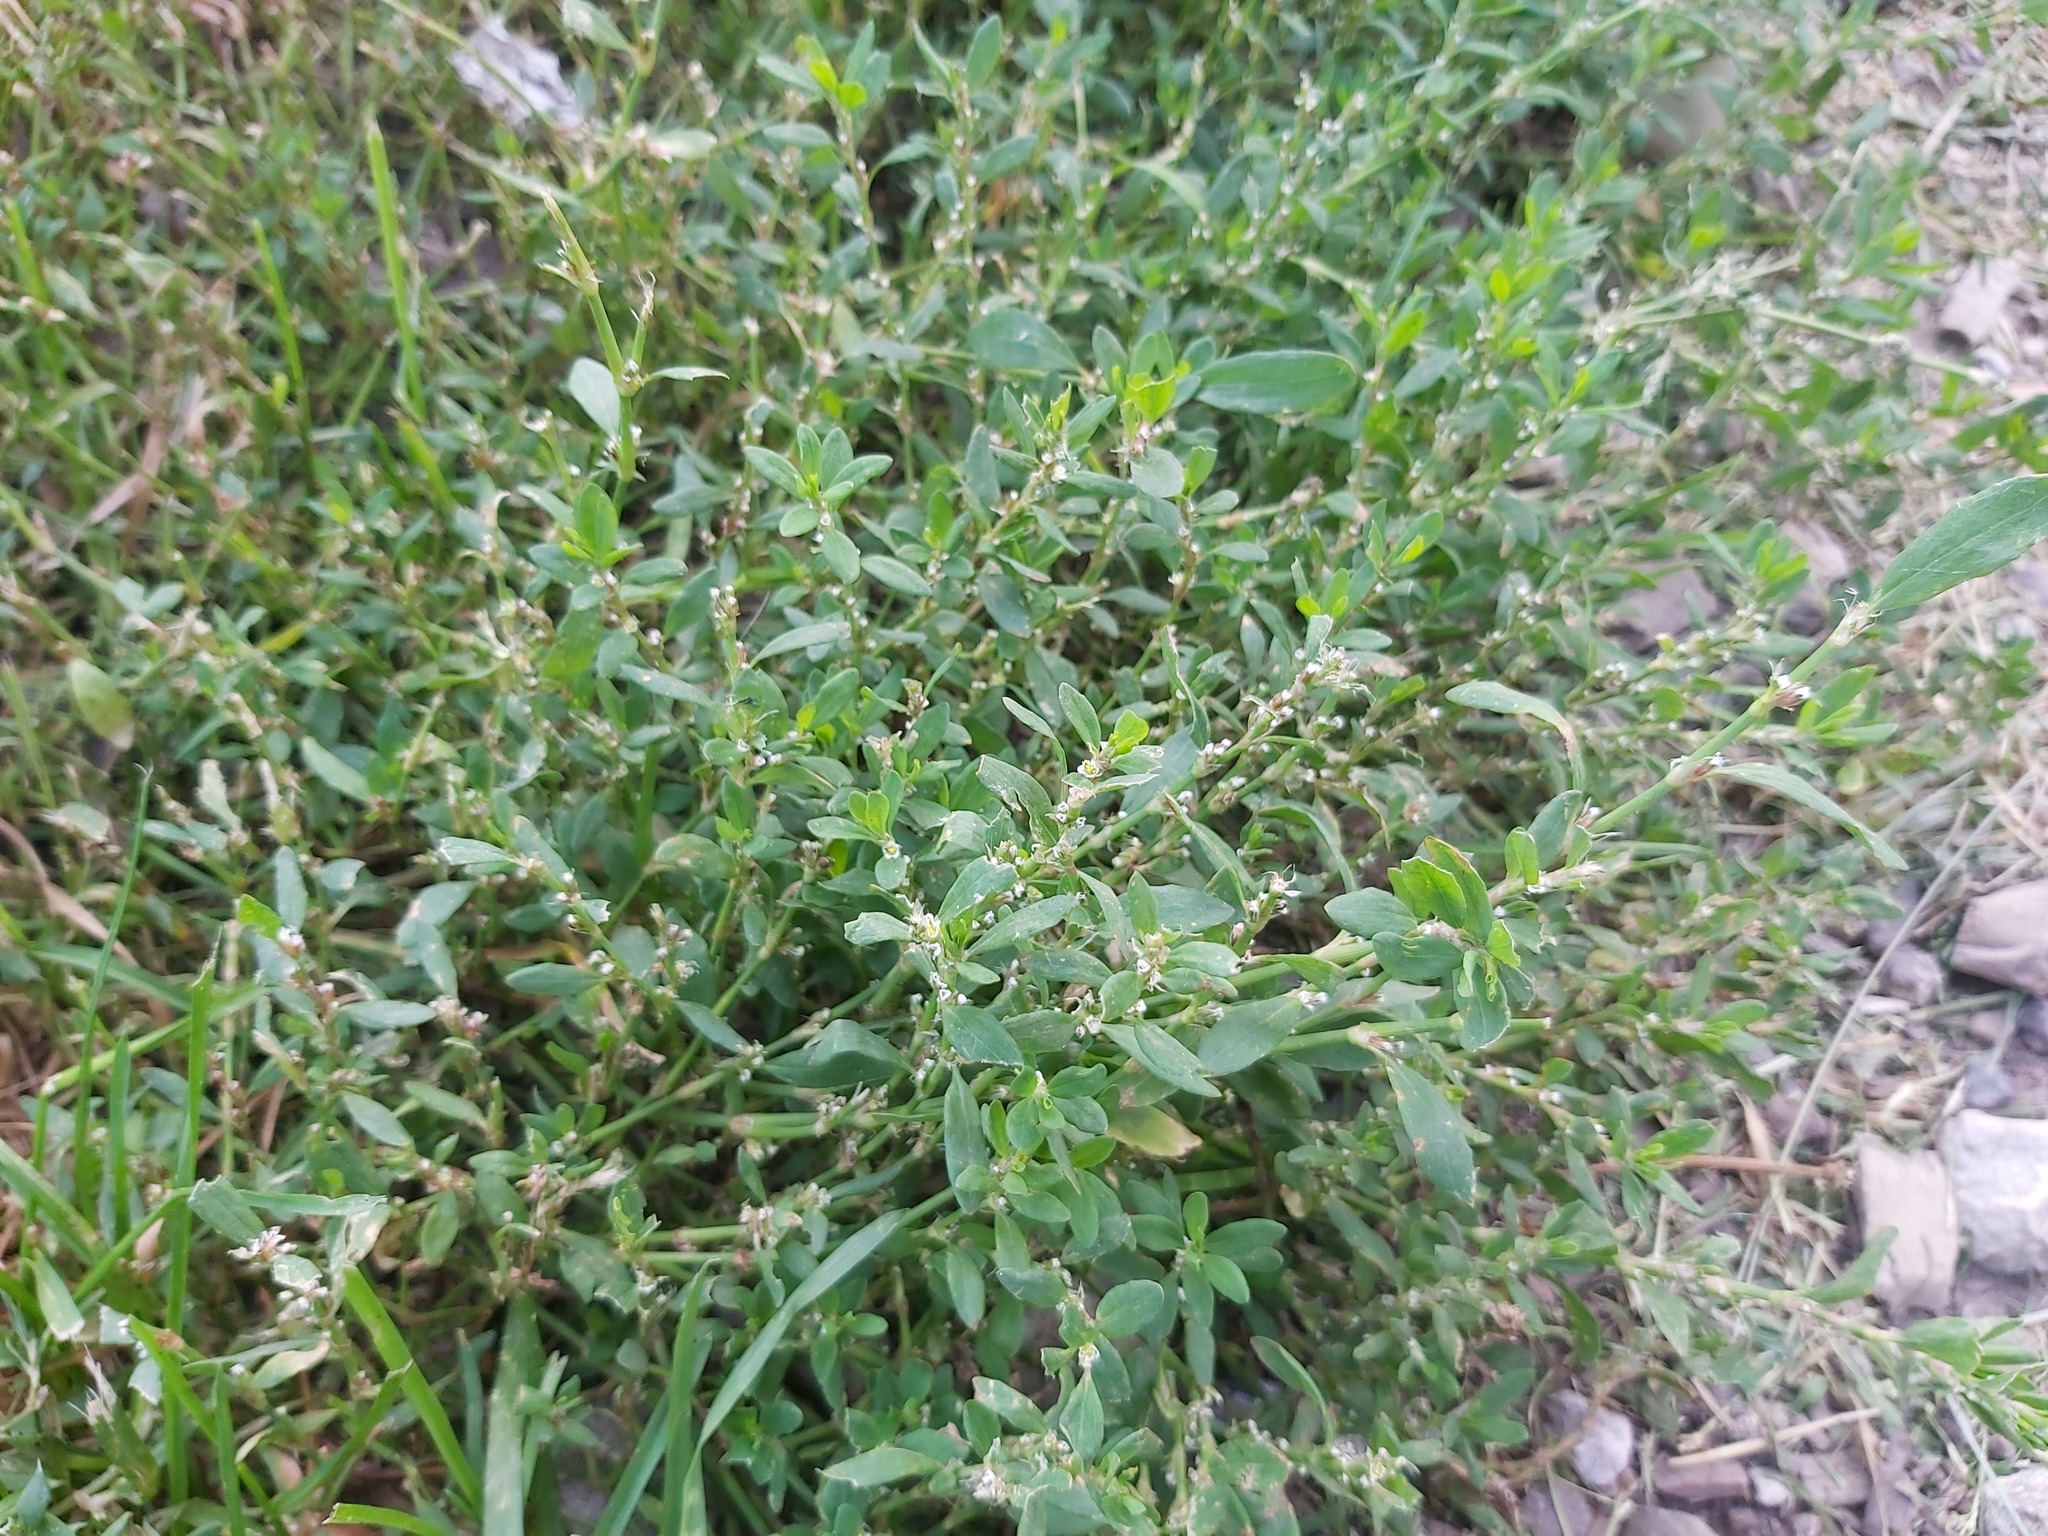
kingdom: Plantae
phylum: Tracheophyta
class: Magnoliopsida
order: Caryophyllales
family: Polygonaceae
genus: Polygonum
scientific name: Polygonum aviculare
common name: Prostrate knotweed
